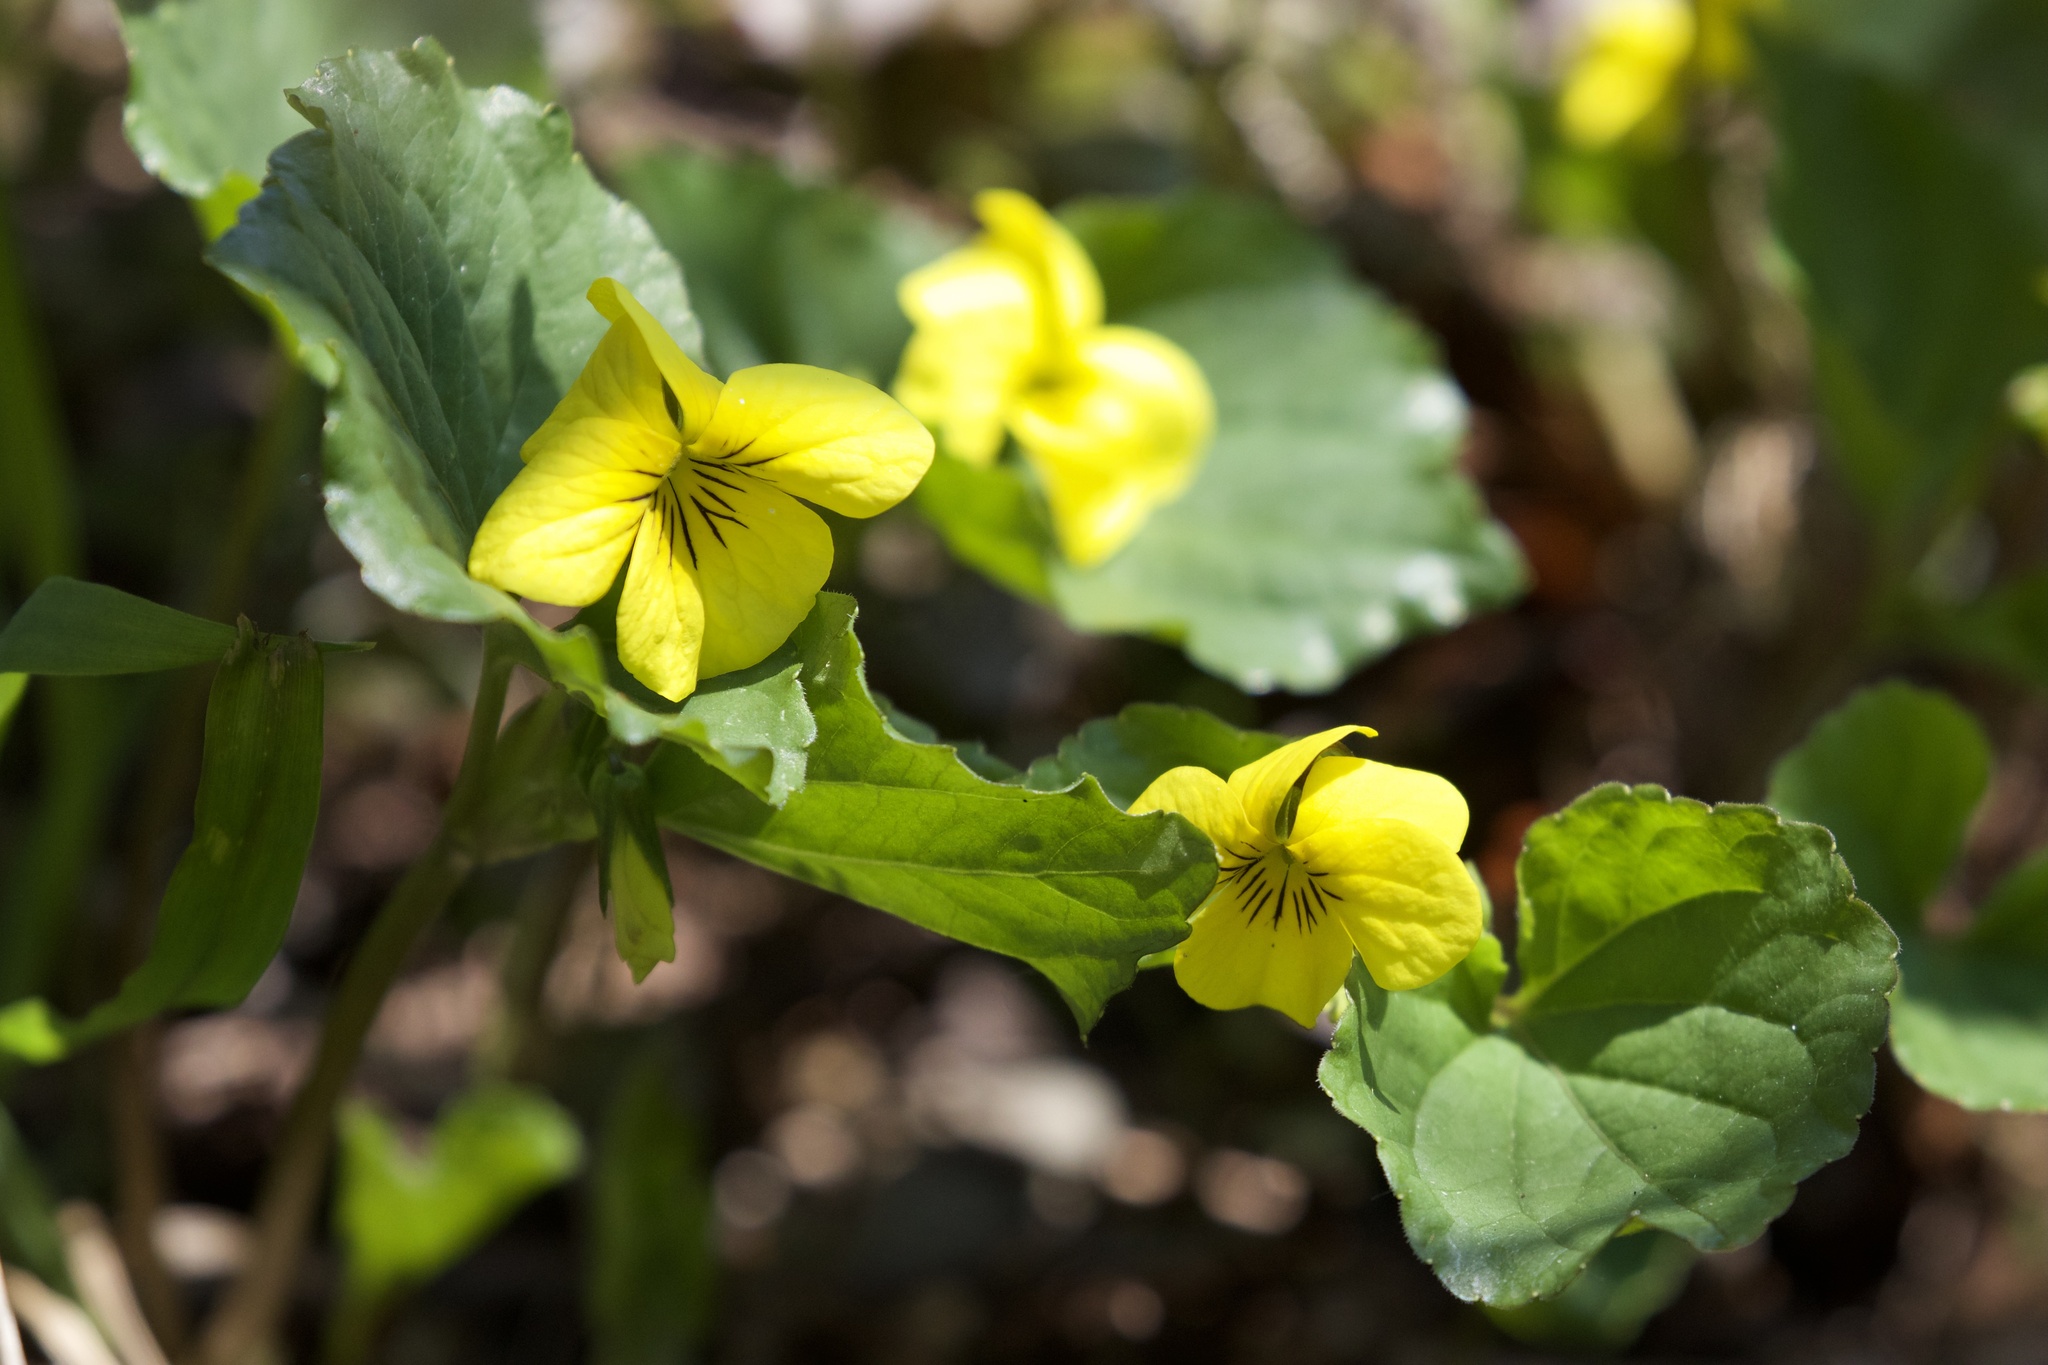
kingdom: Plantae
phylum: Tracheophyta
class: Magnoliopsida
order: Malpighiales
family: Violaceae
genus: Viola
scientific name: Viola glabella
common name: Stream violet
